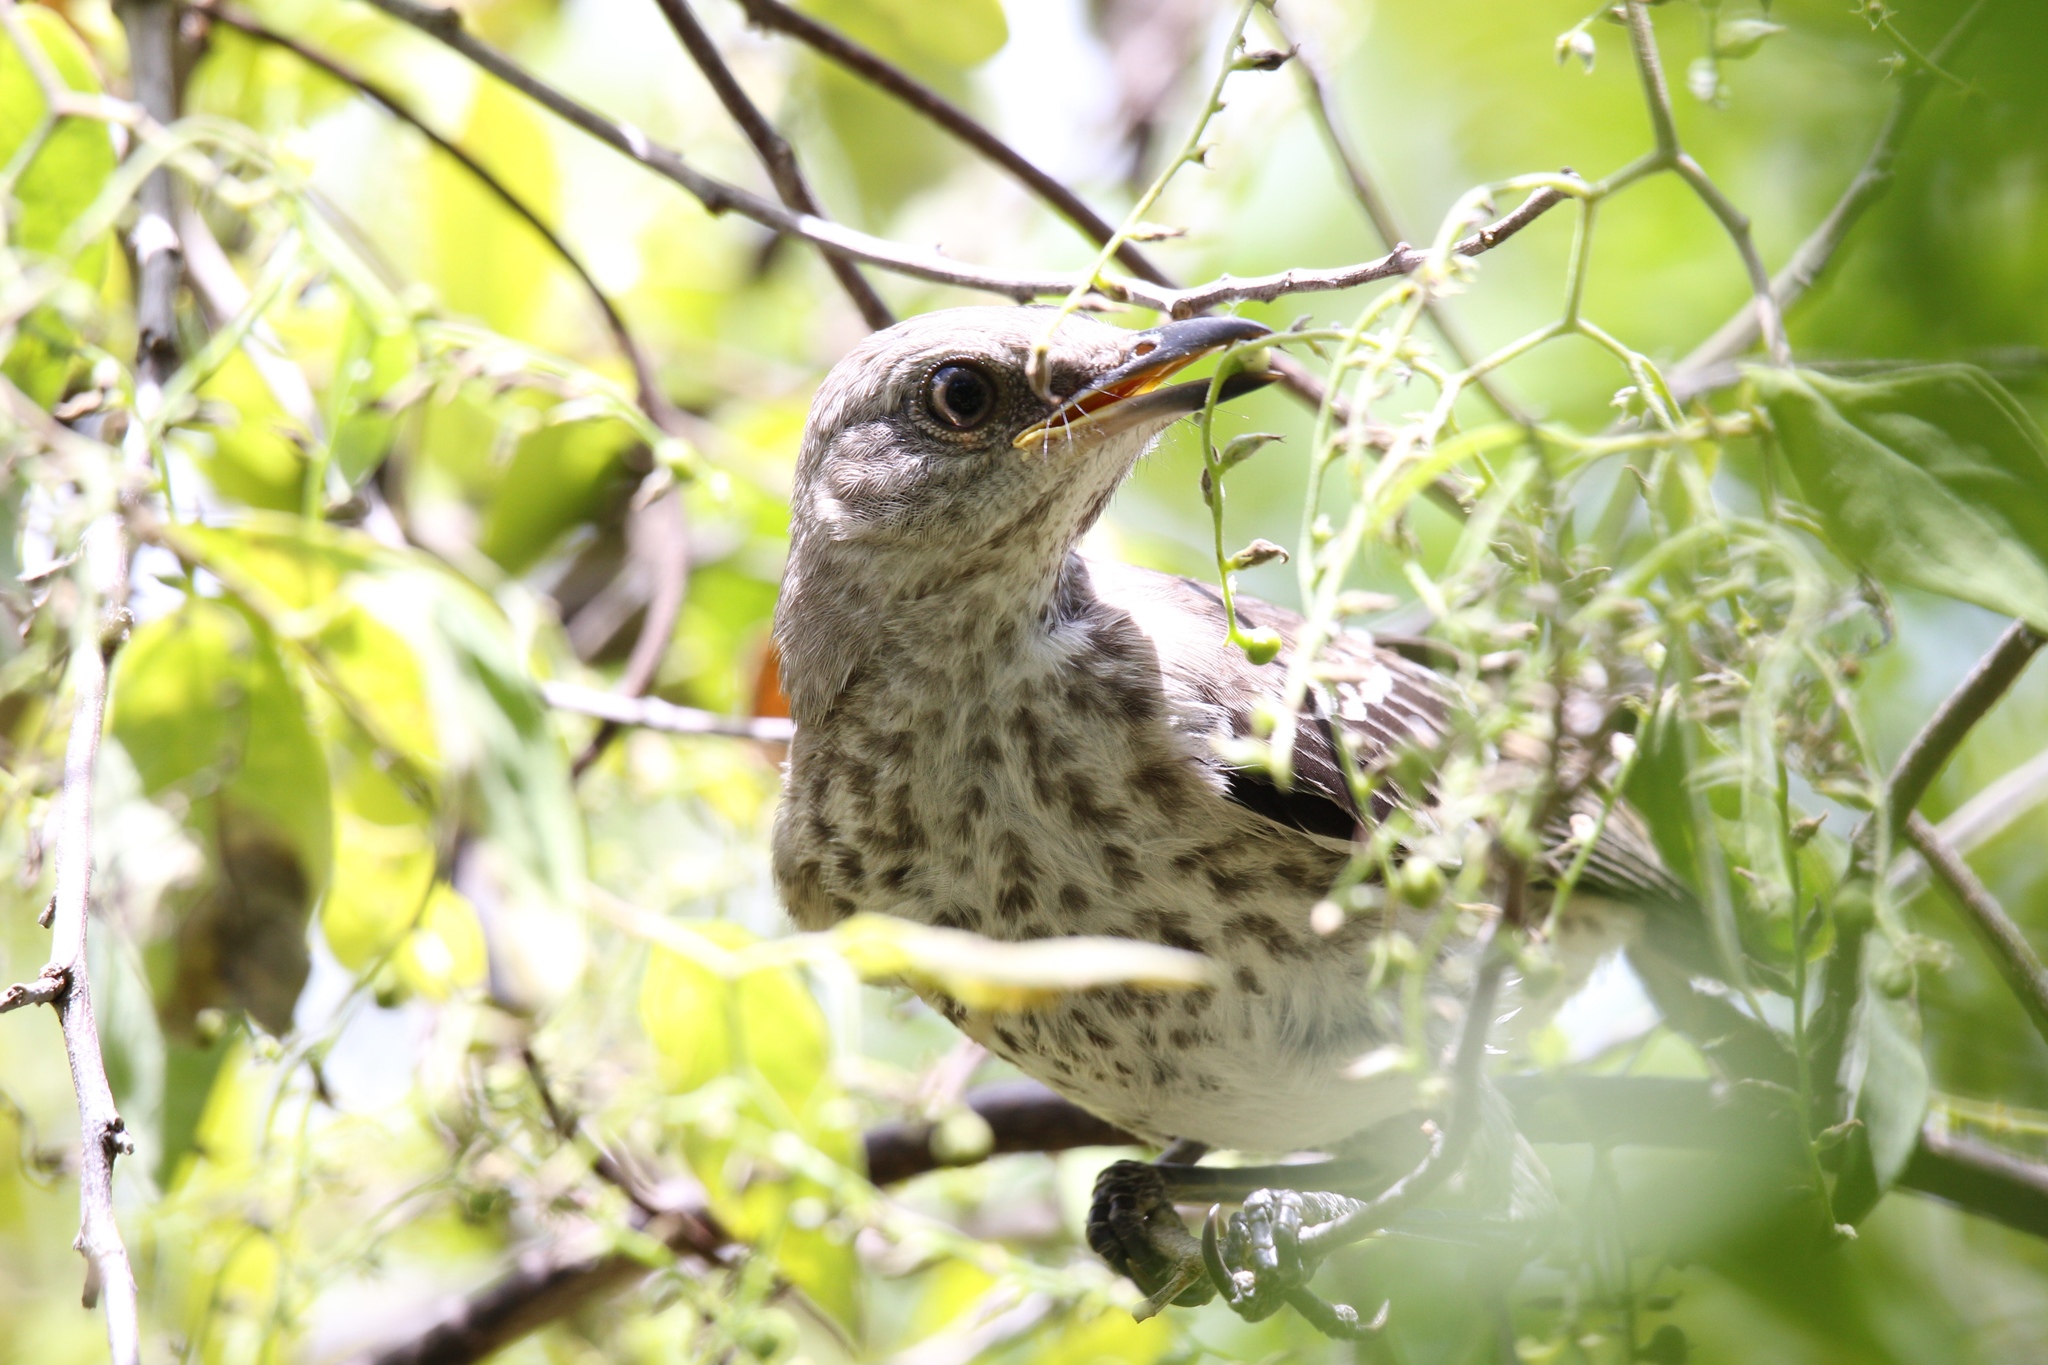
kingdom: Animalia
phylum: Chordata
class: Aves
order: Passeriformes
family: Mimidae
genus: Mimus
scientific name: Mimus polyglottos
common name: Northern mockingbird
